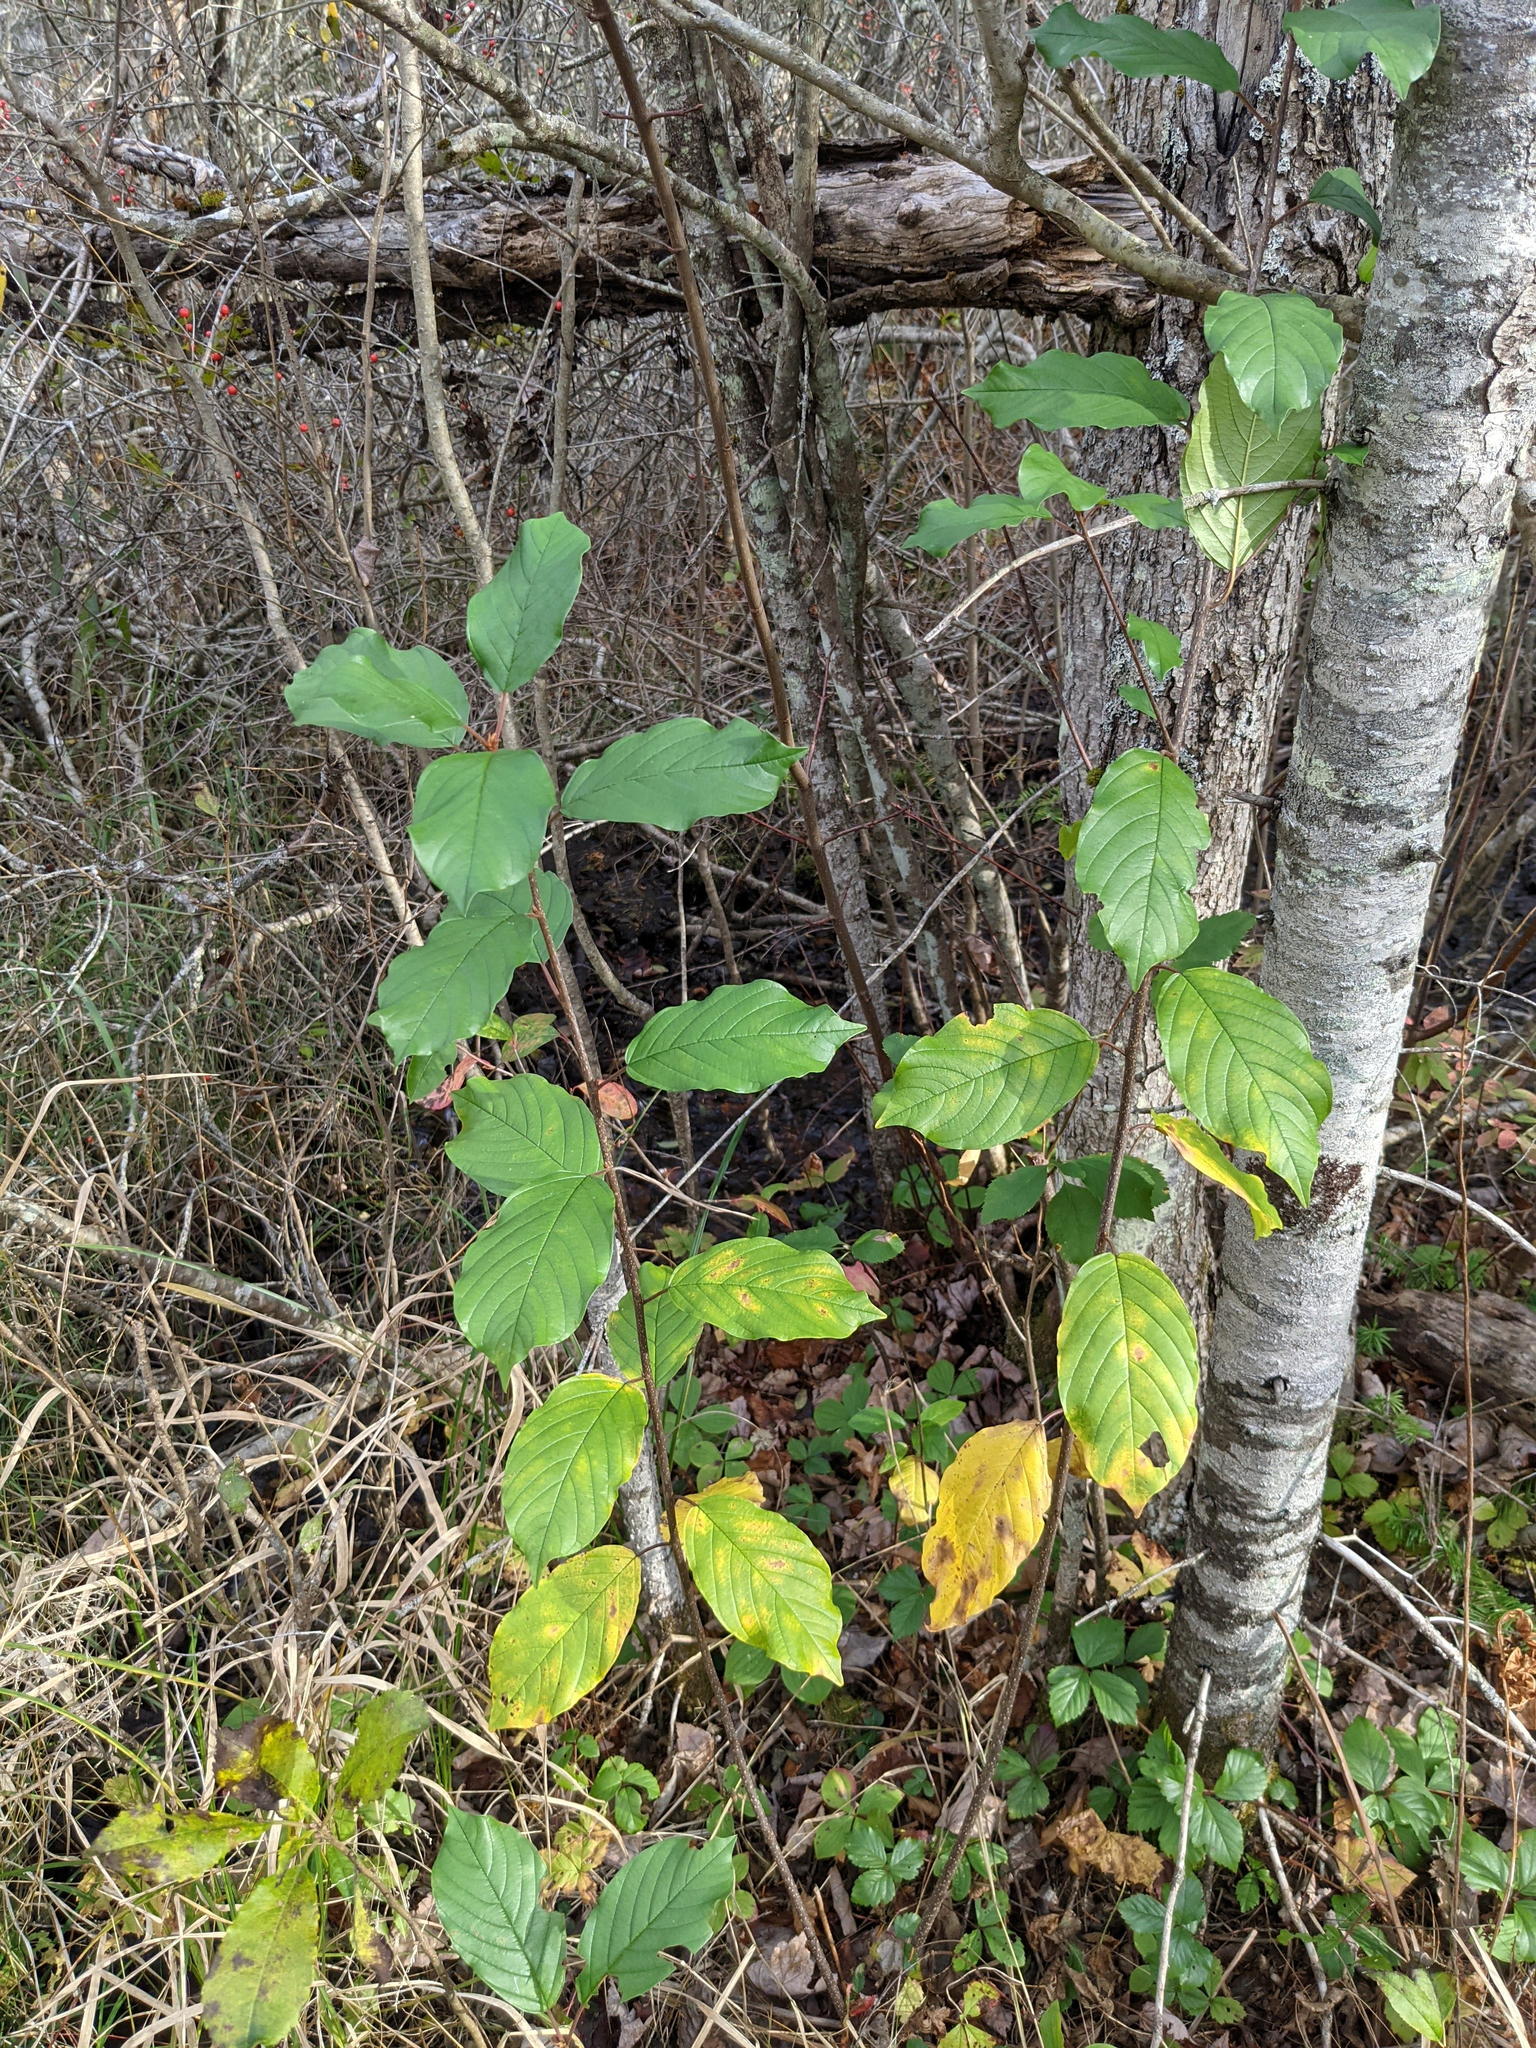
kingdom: Plantae
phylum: Tracheophyta
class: Magnoliopsida
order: Rosales
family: Rhamnaceae
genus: Frangula
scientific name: Frangula alnus
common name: Alder buckthorn
